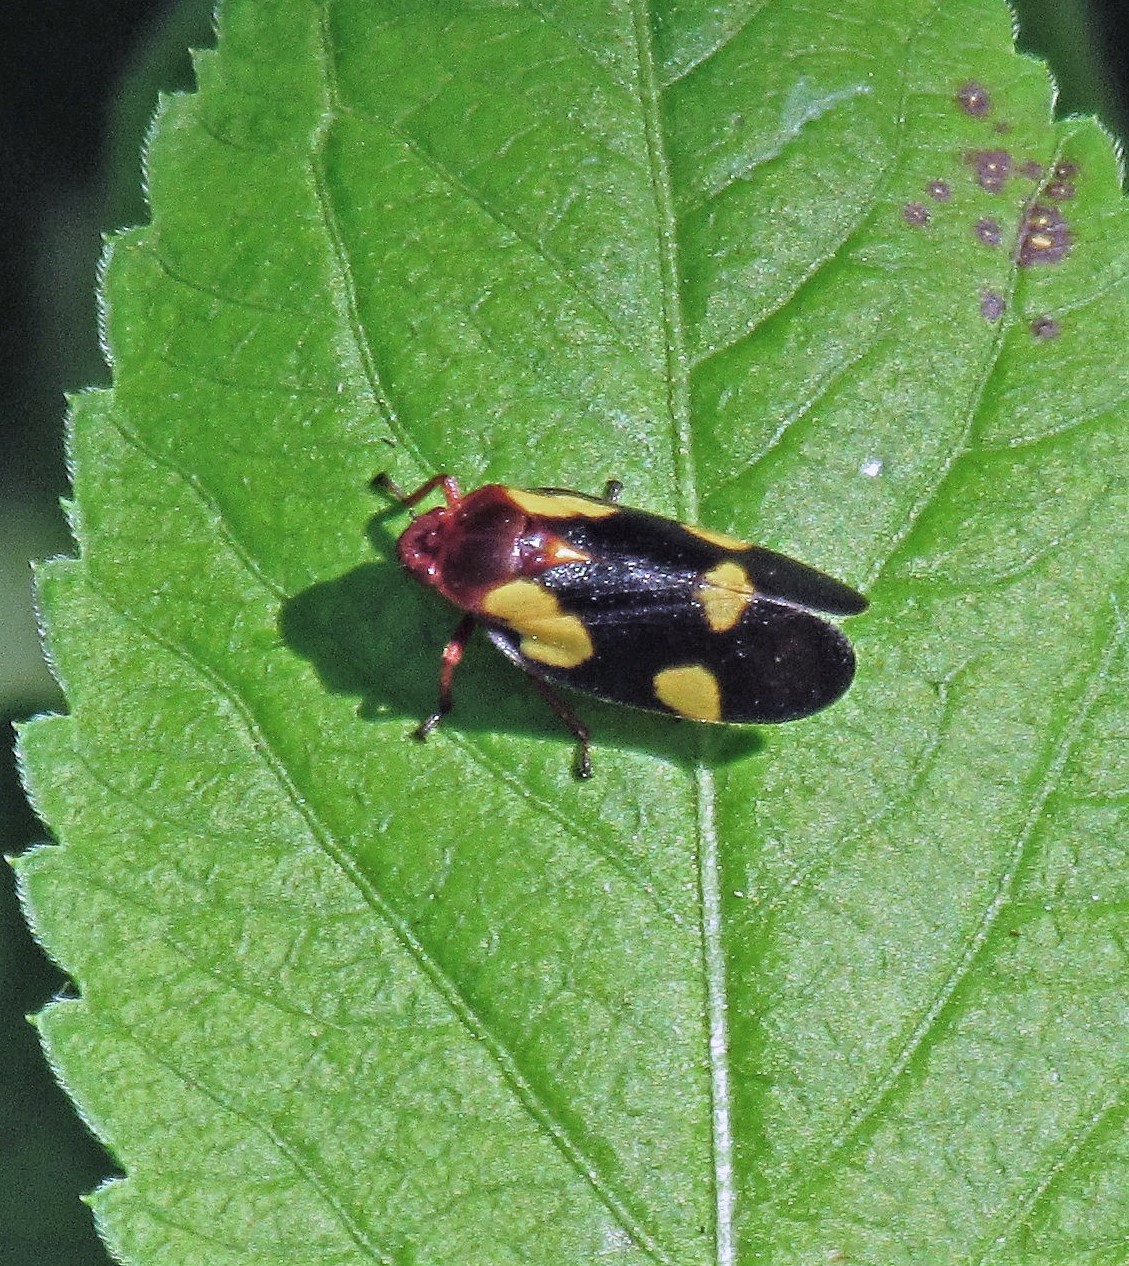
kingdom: Animalia
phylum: Arthropoda
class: Insecta
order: Hemiptera
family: Cercopidae
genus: Sphenorhina
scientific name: Sphenorhina limbata
